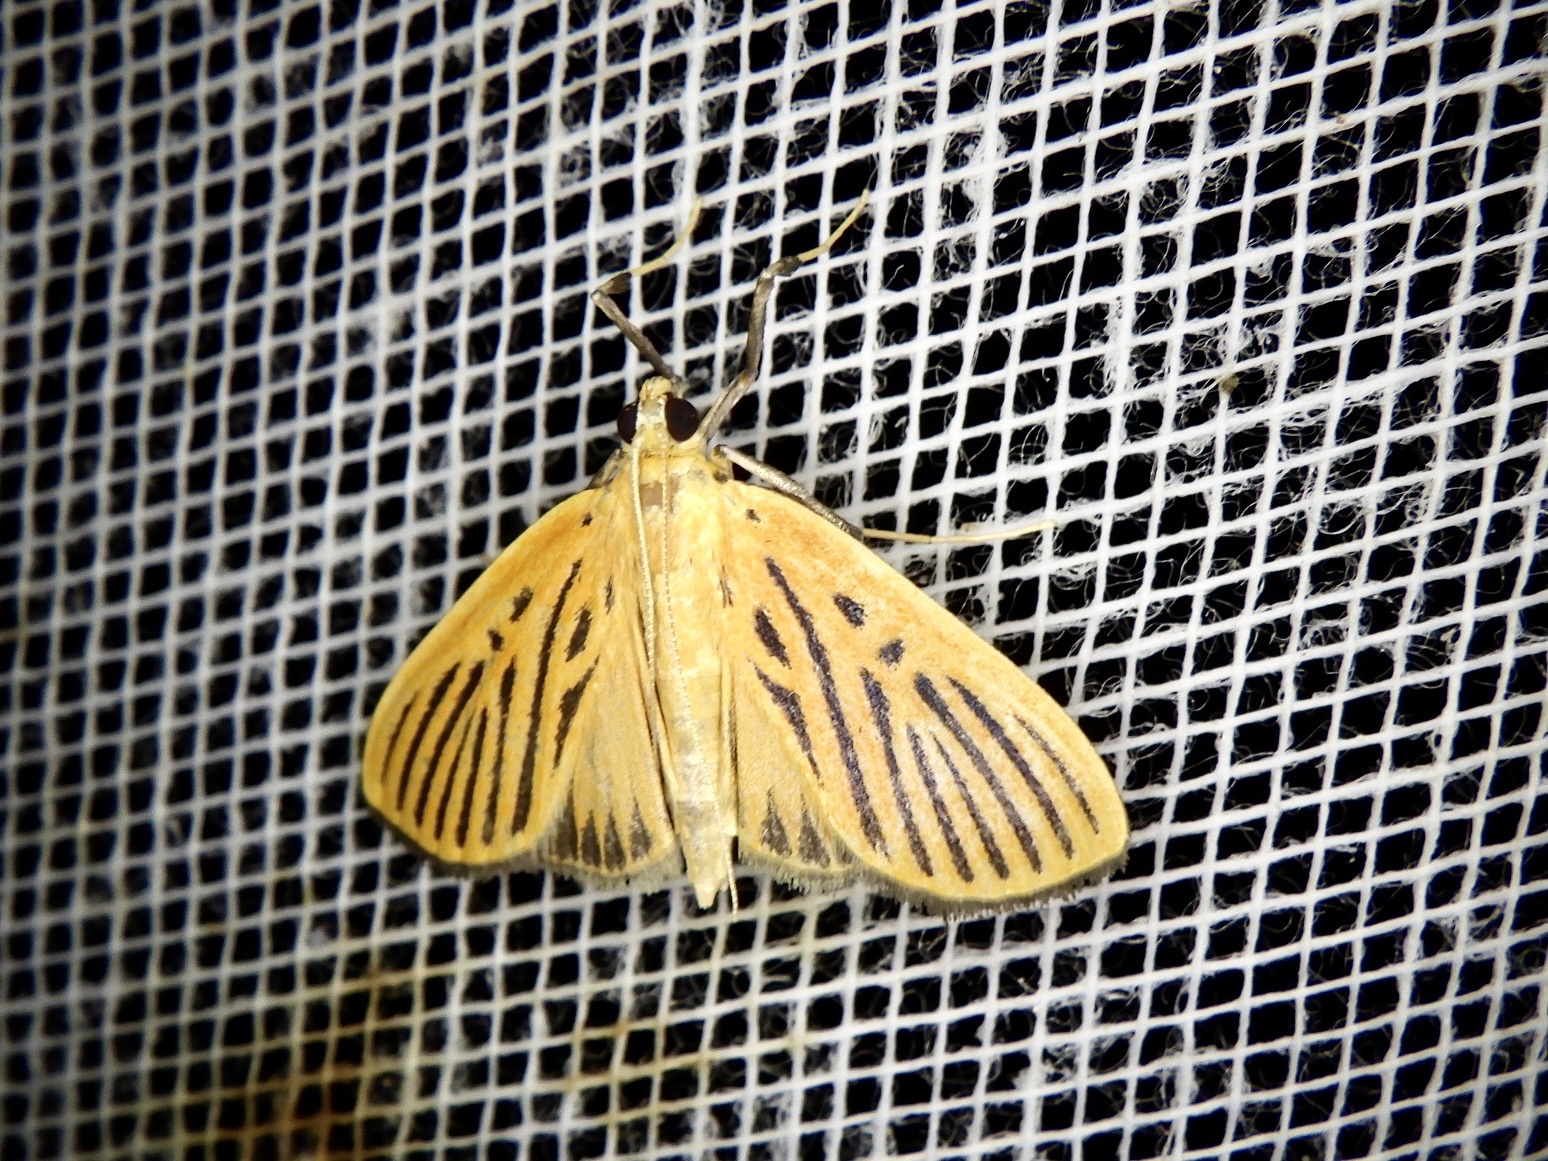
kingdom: Animalia
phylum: Arthropoda
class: Insecta
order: Lepidoptera
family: Crambidae
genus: Tyspanodes
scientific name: Tyspanodes striata
